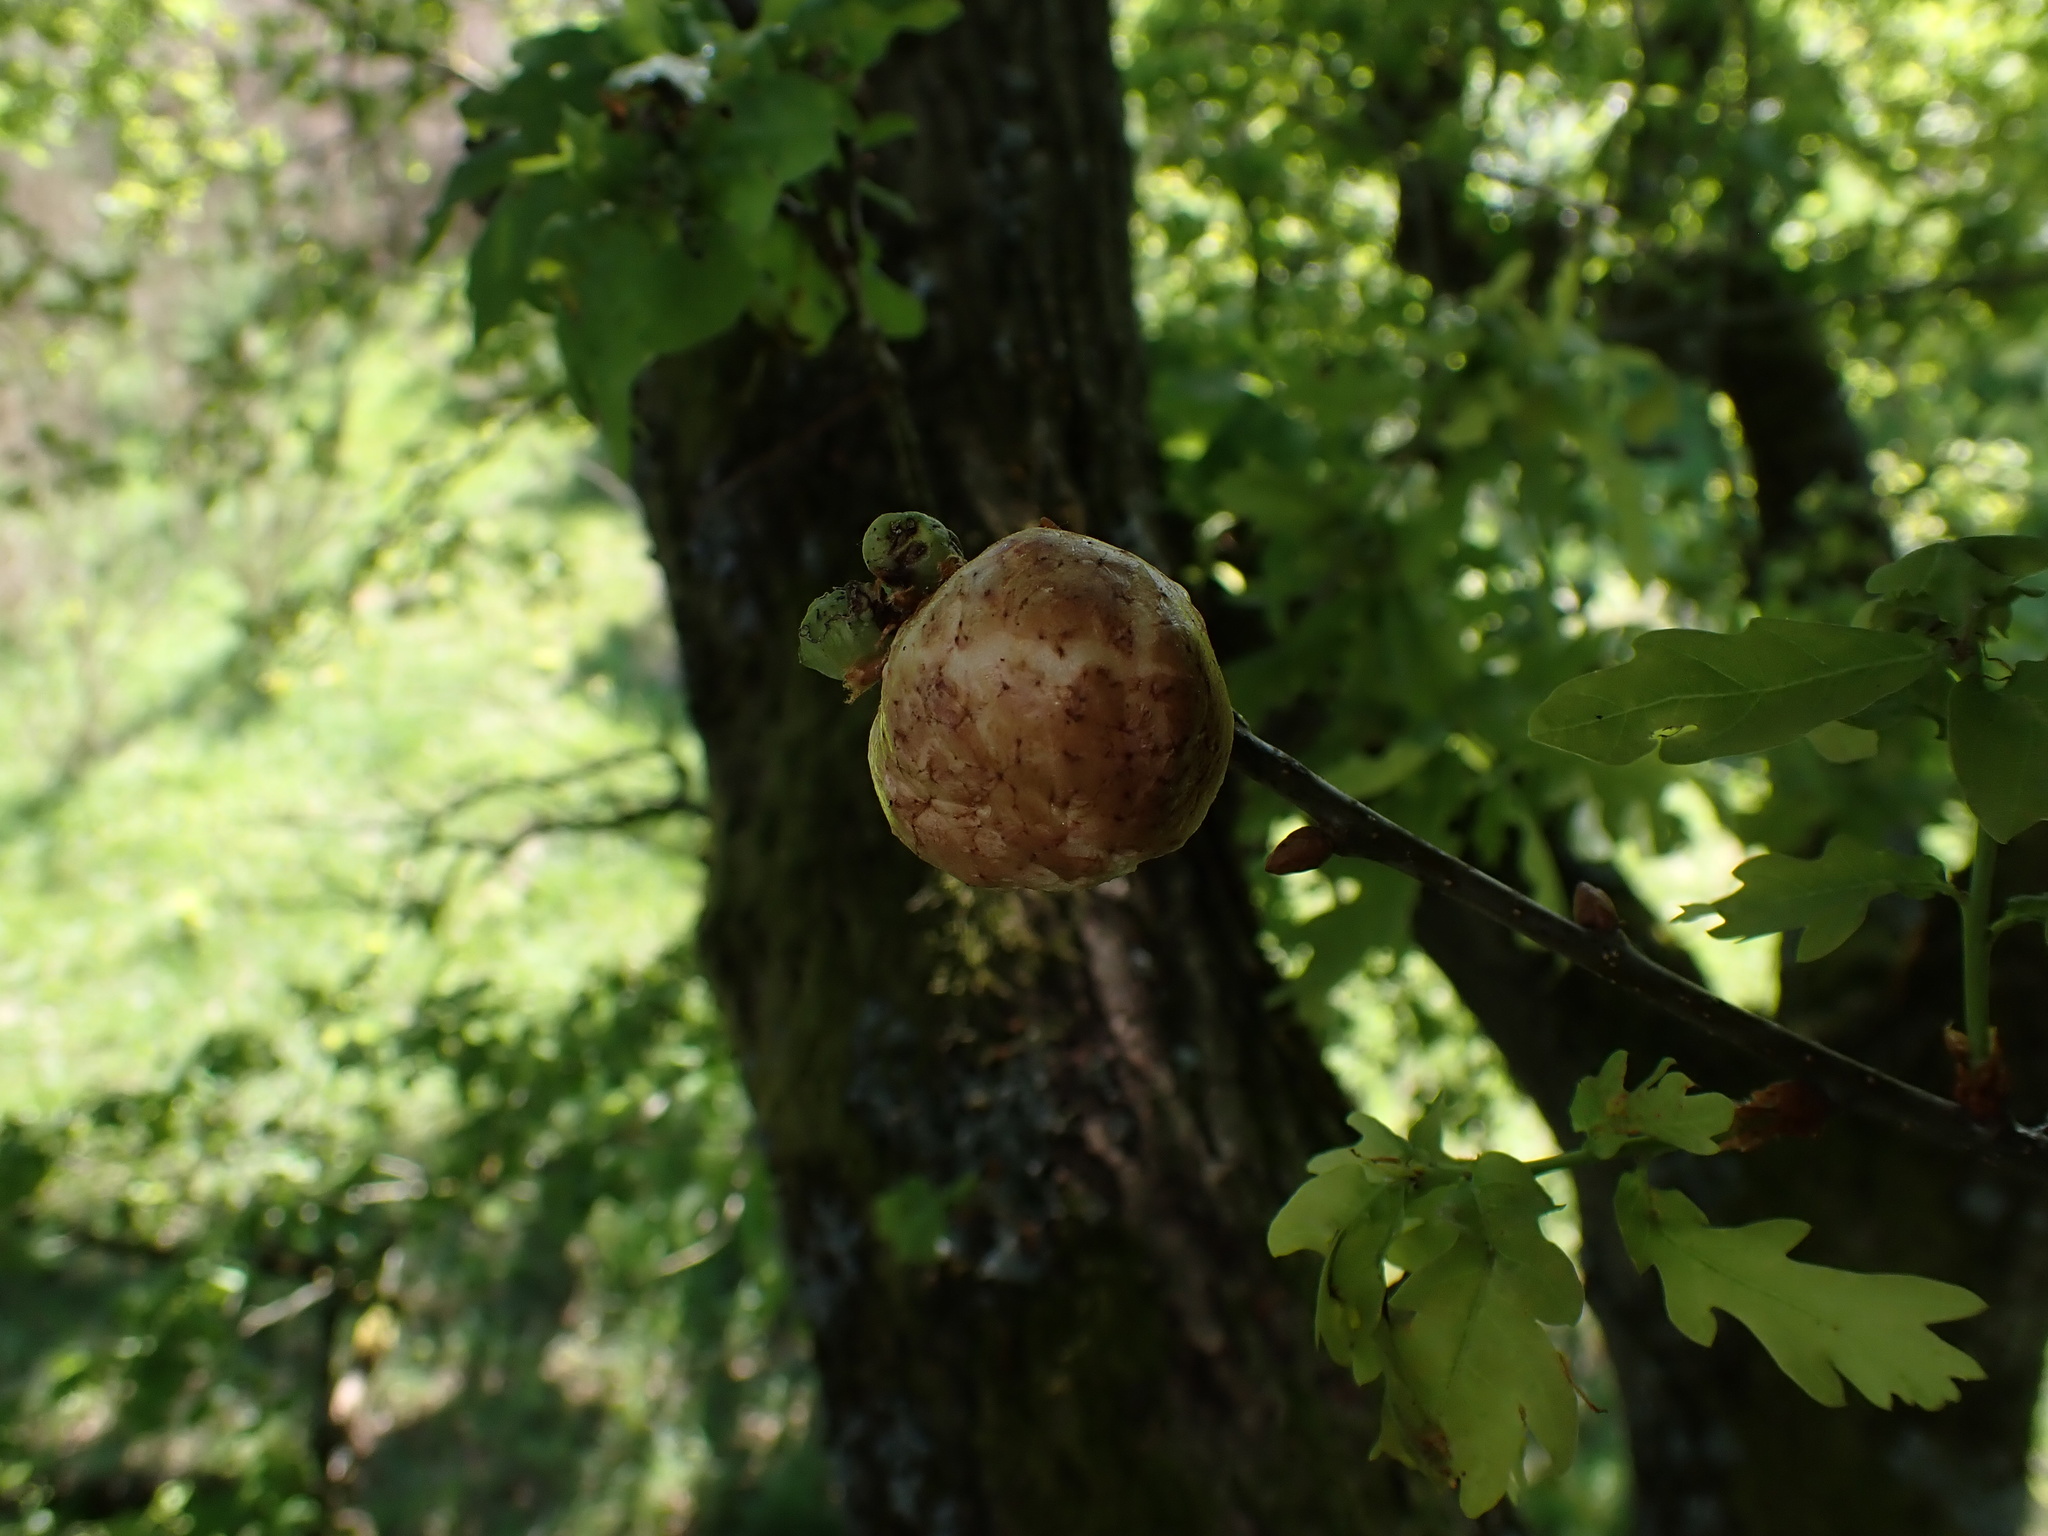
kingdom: Animalia
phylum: Arthropoda
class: Insecta
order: Hymenoptera
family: Cynipidae
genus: Biorhiza
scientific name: Biorhiza pallida
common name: Oak apple
